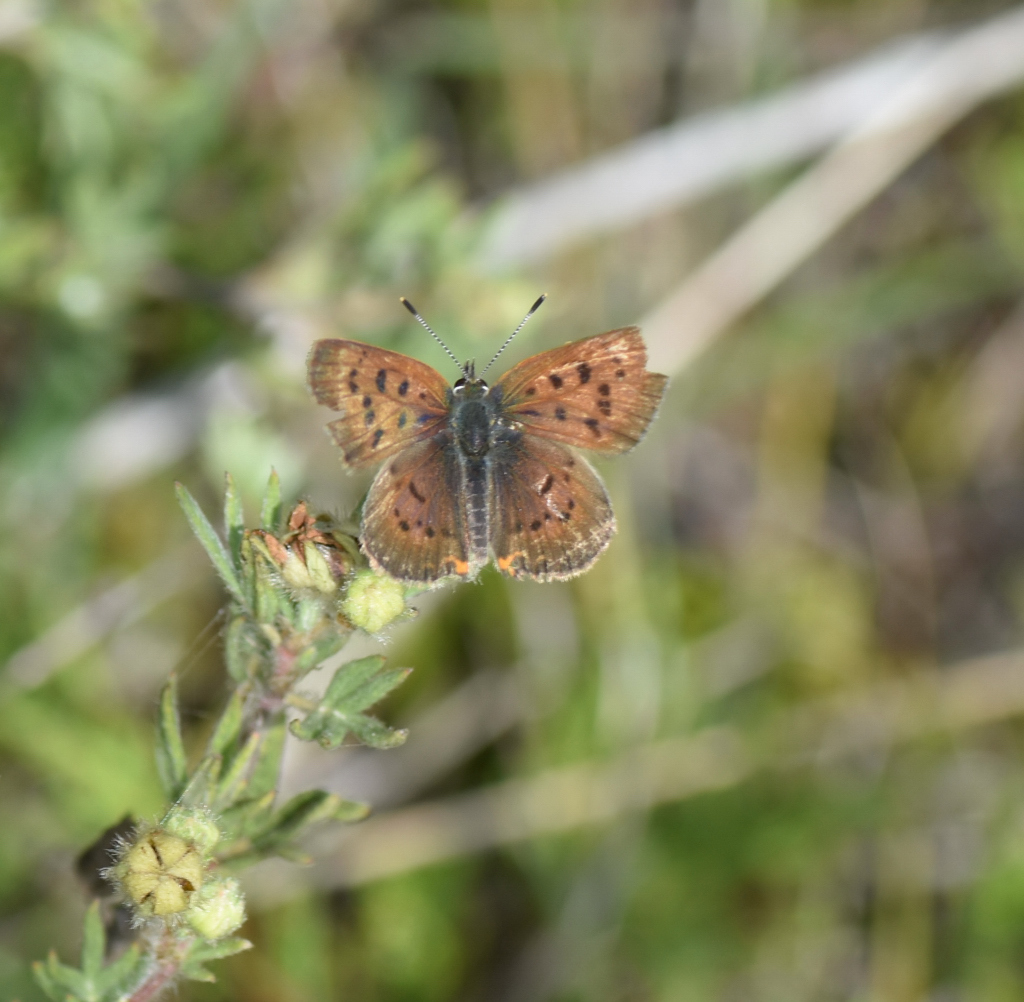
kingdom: Animalia
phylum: Arthropoda
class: Insecta
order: Lepidoptera
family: Lycaenidae
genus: Tharsalea
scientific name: Tharsalea dorcas
